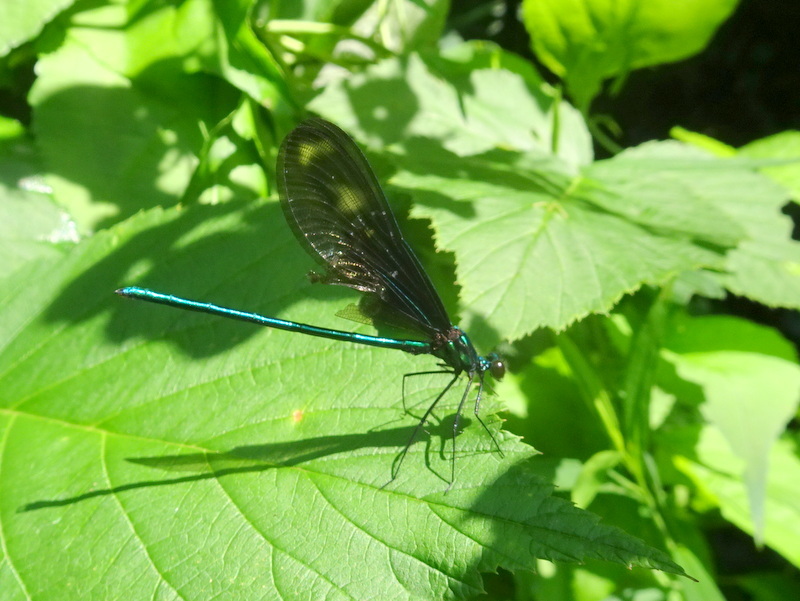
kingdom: Animalia
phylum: Arthropoda
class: Insecta
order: Odonata
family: Calopterygidae
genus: Calopteryx
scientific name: Calopteryx maculata
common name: Ebony jewelwing
